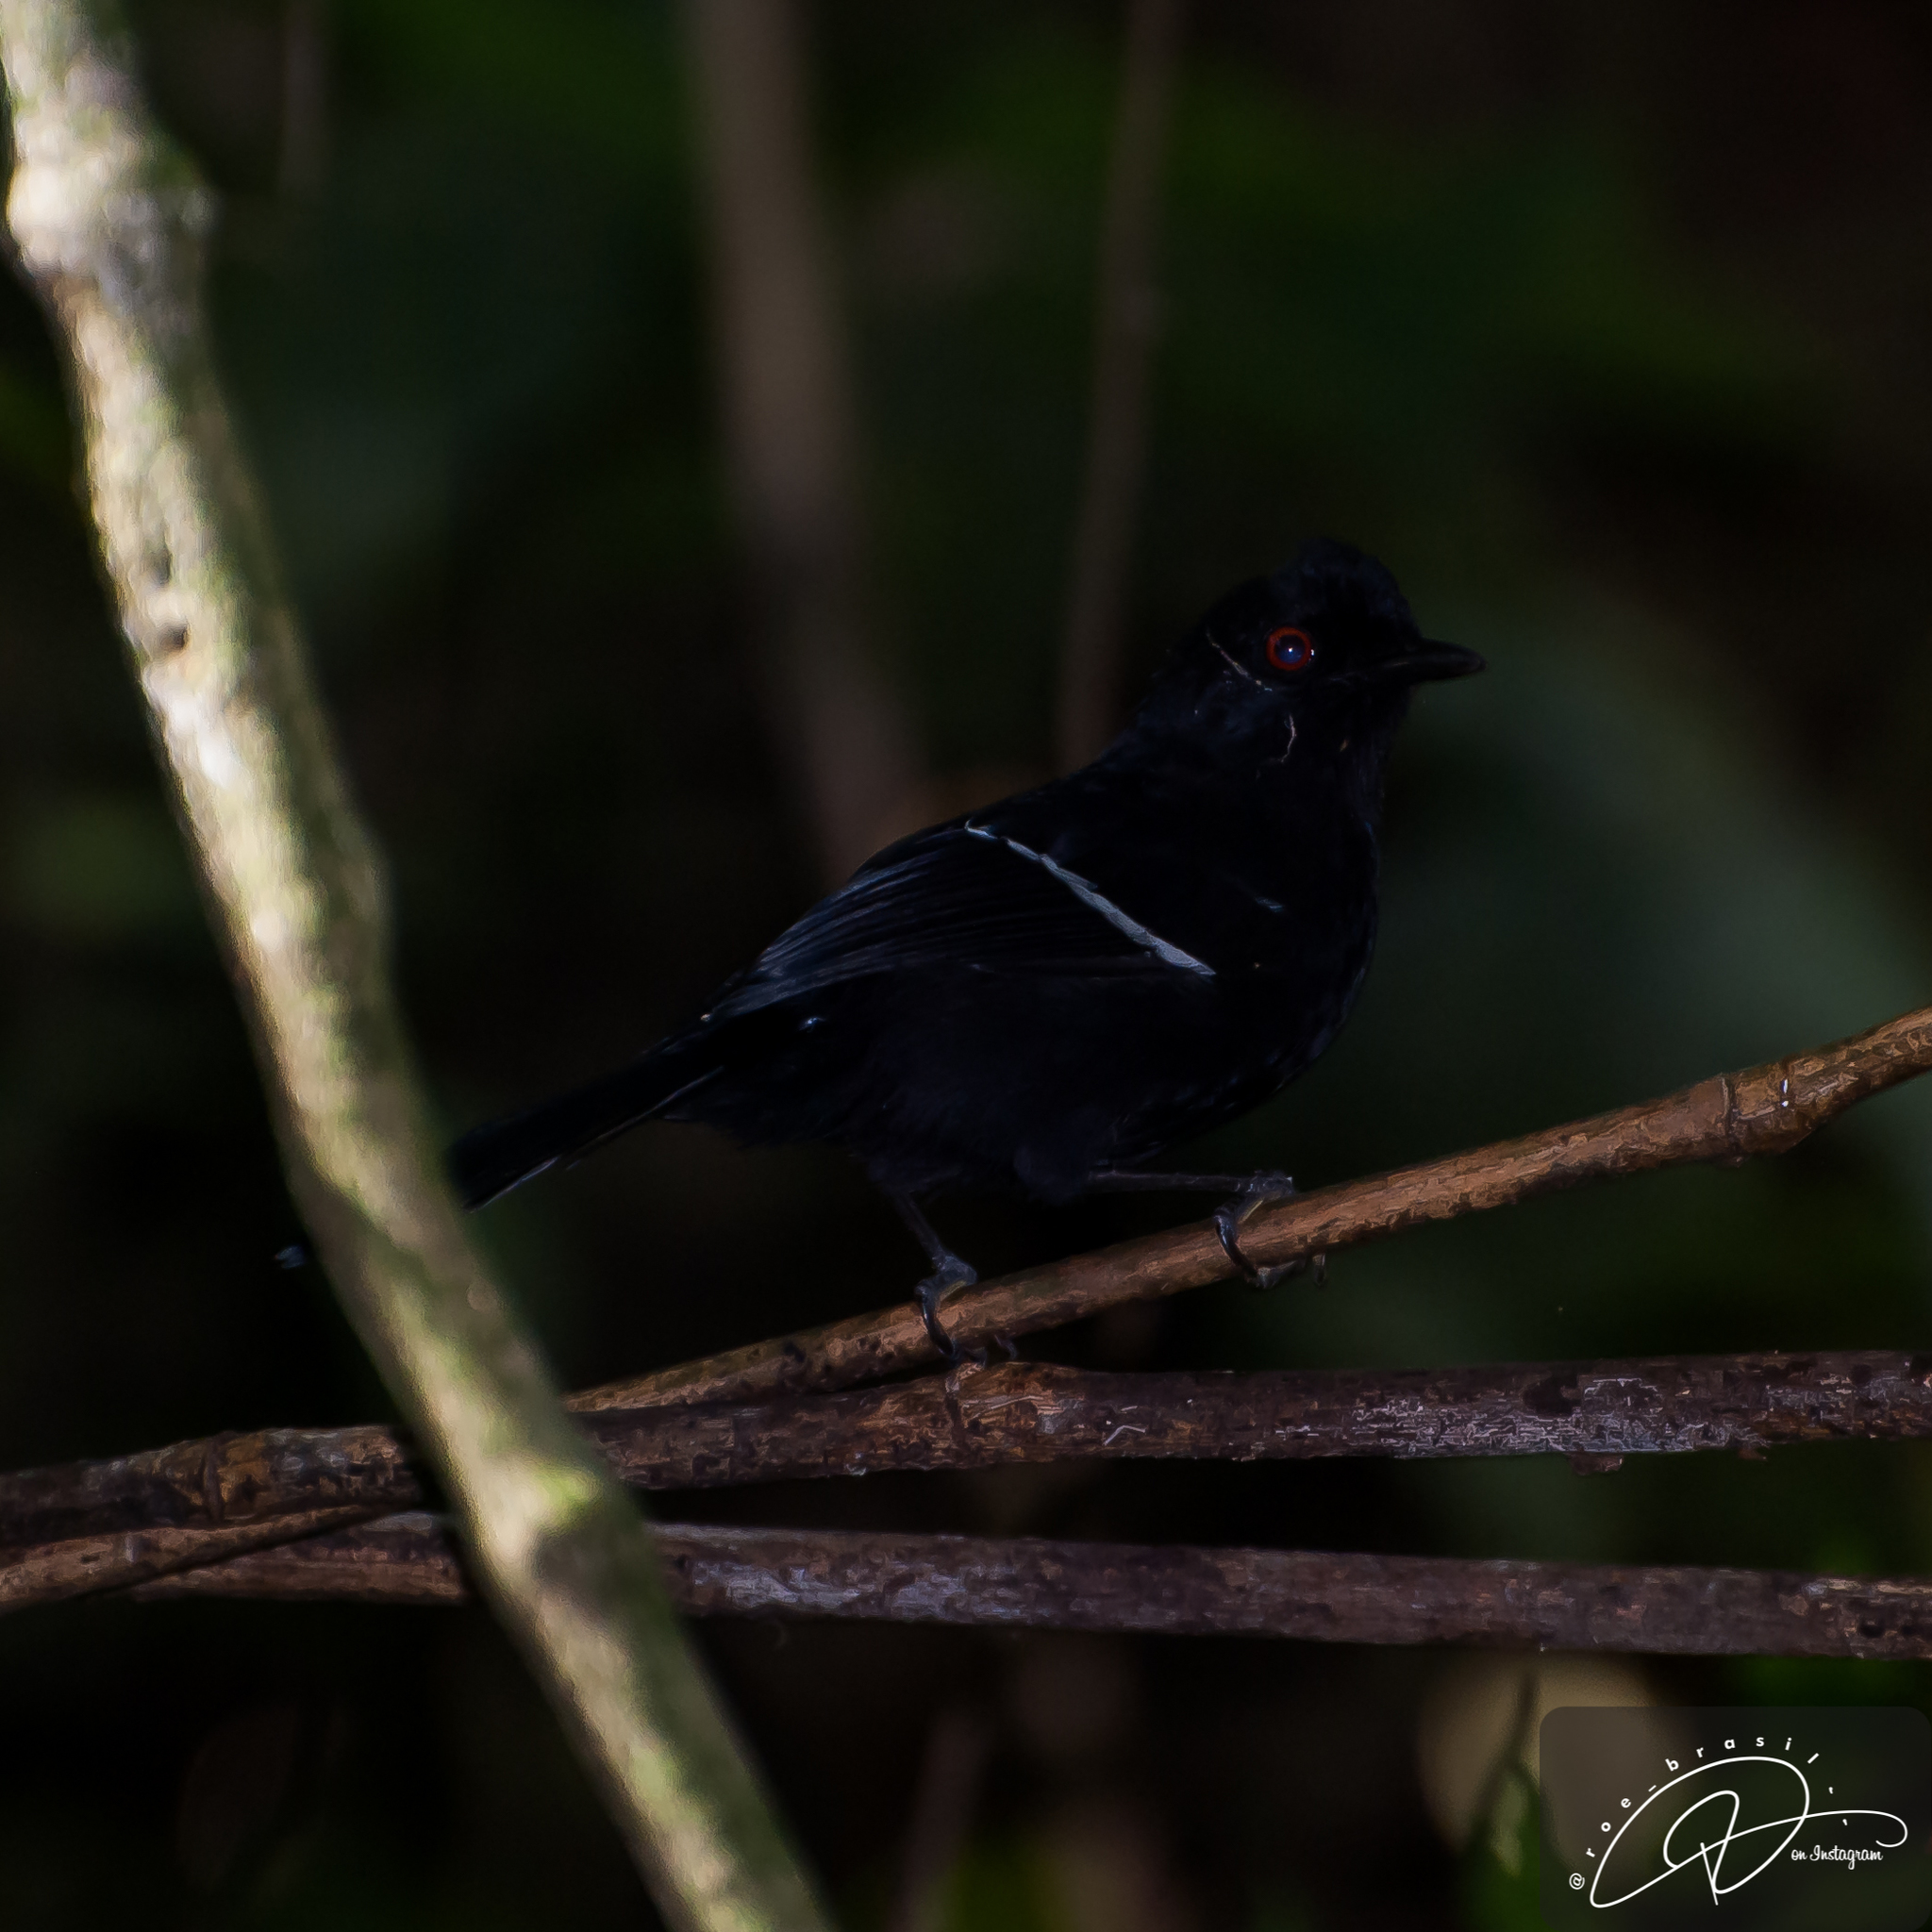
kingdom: Animalia
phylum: Chordata
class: Aves
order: Passeriformes
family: Thamnophilidae
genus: Pyriglena
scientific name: Pyriglena leucoptera
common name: White-shouldered fire-eye
